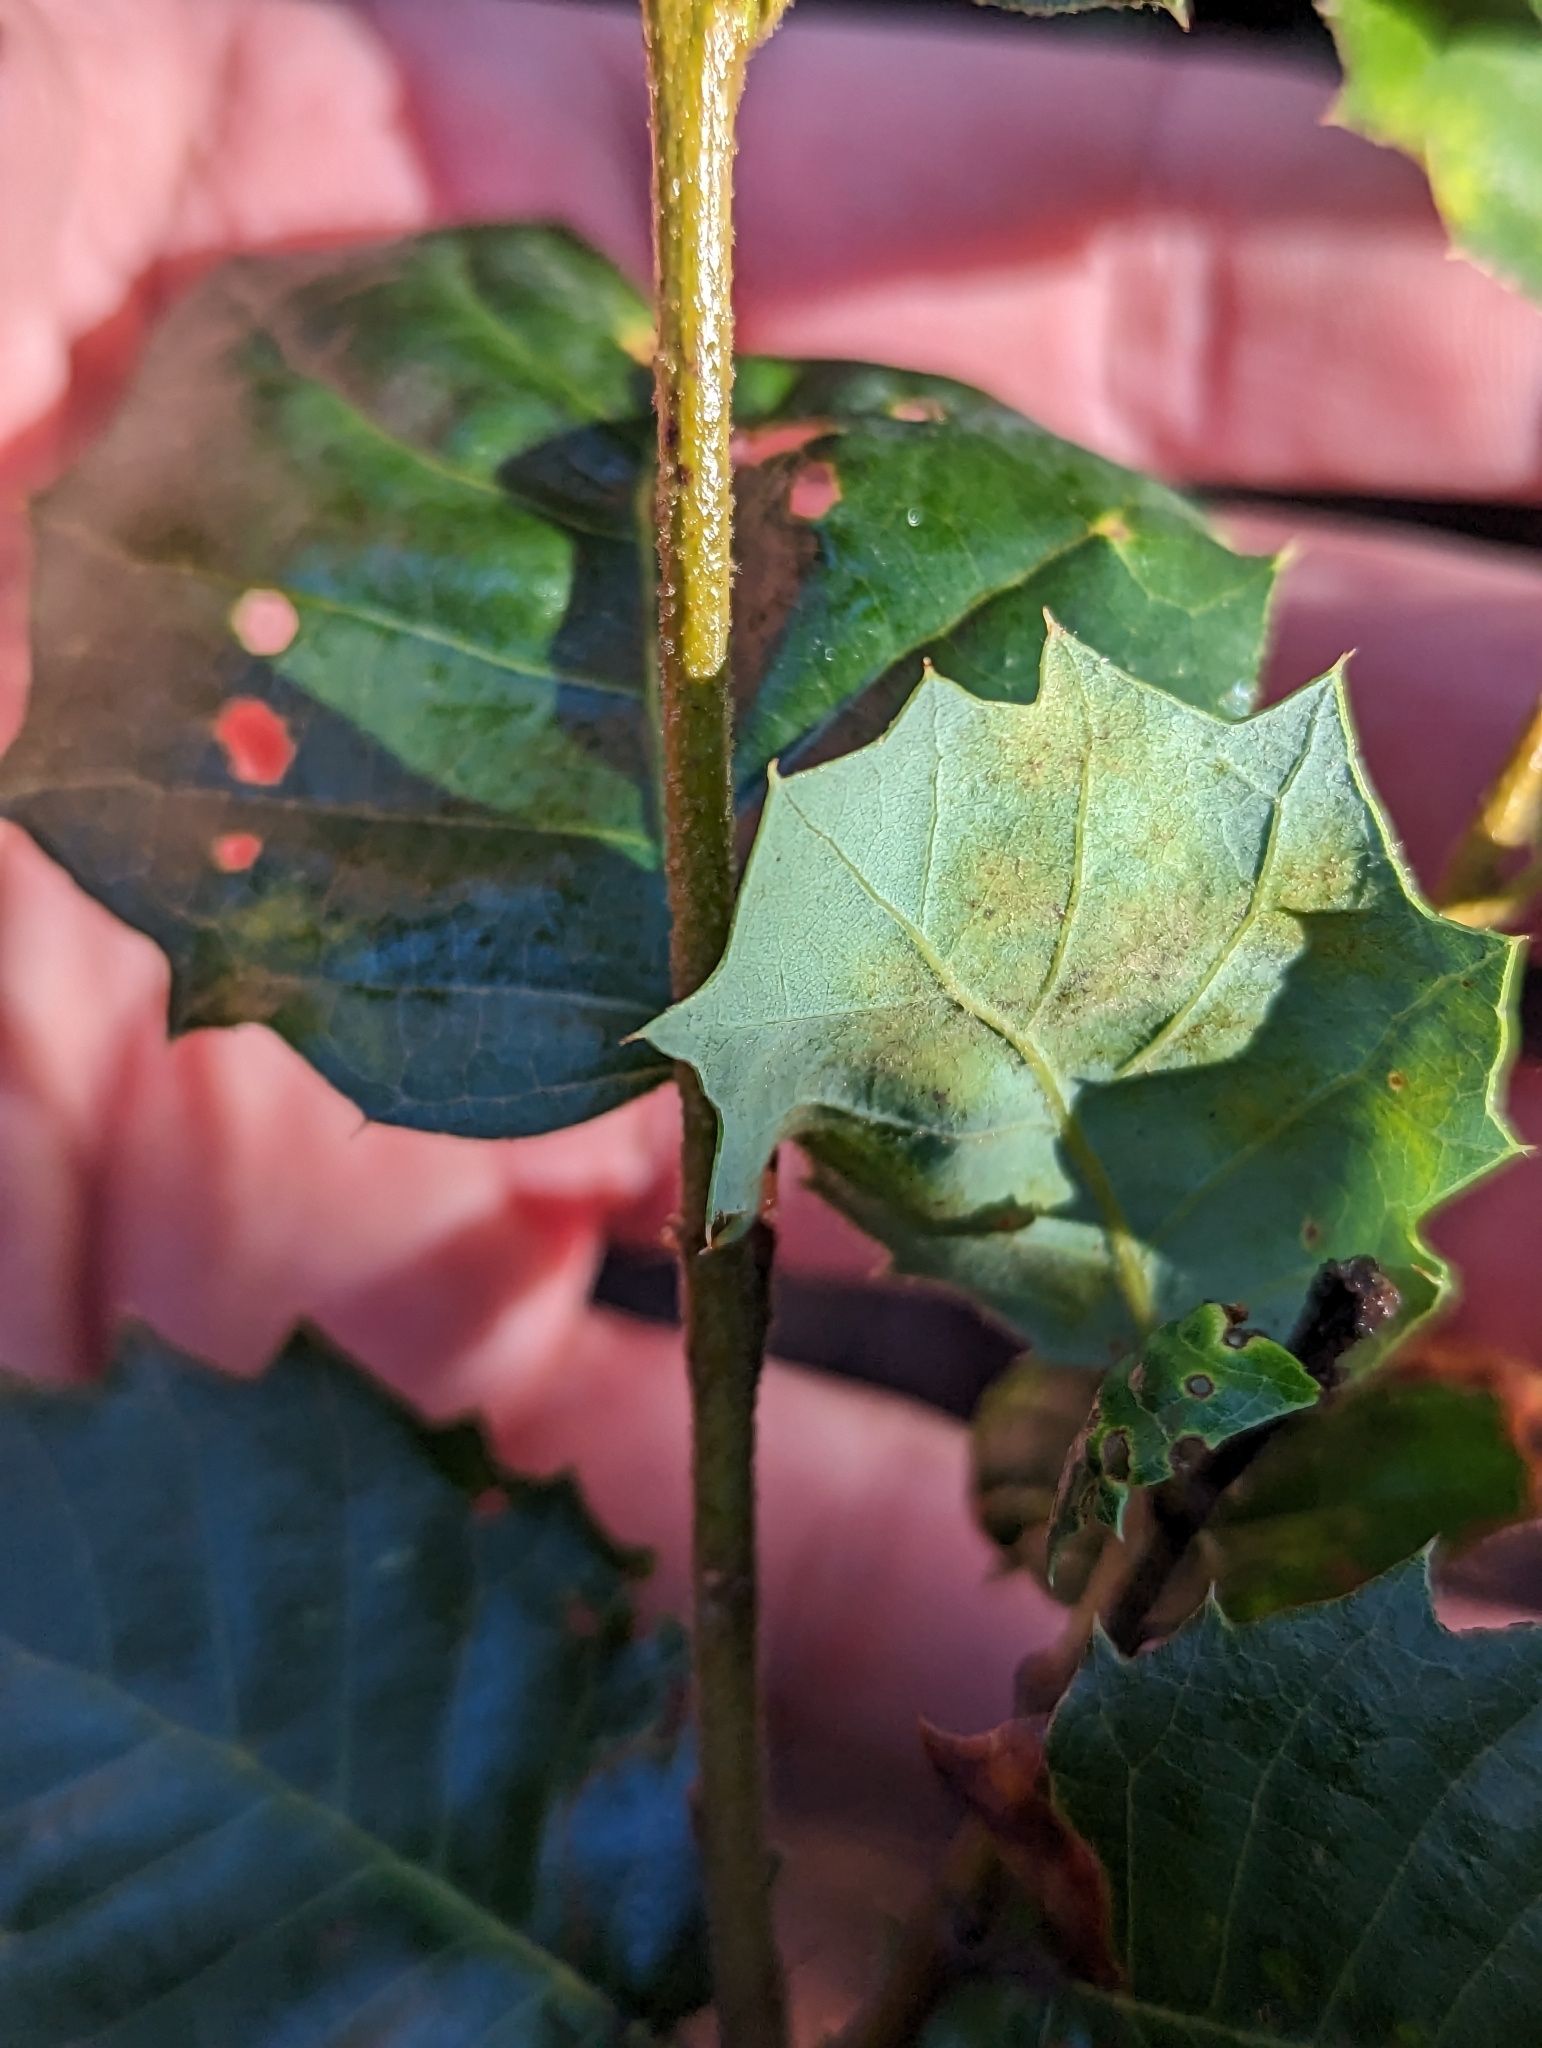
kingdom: Plantae
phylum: Tracheophyta
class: Magnoliopsida
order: Fagales
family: Fagaceae
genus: Quercus
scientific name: Quercus chrysolepis
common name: Canyon live oak
